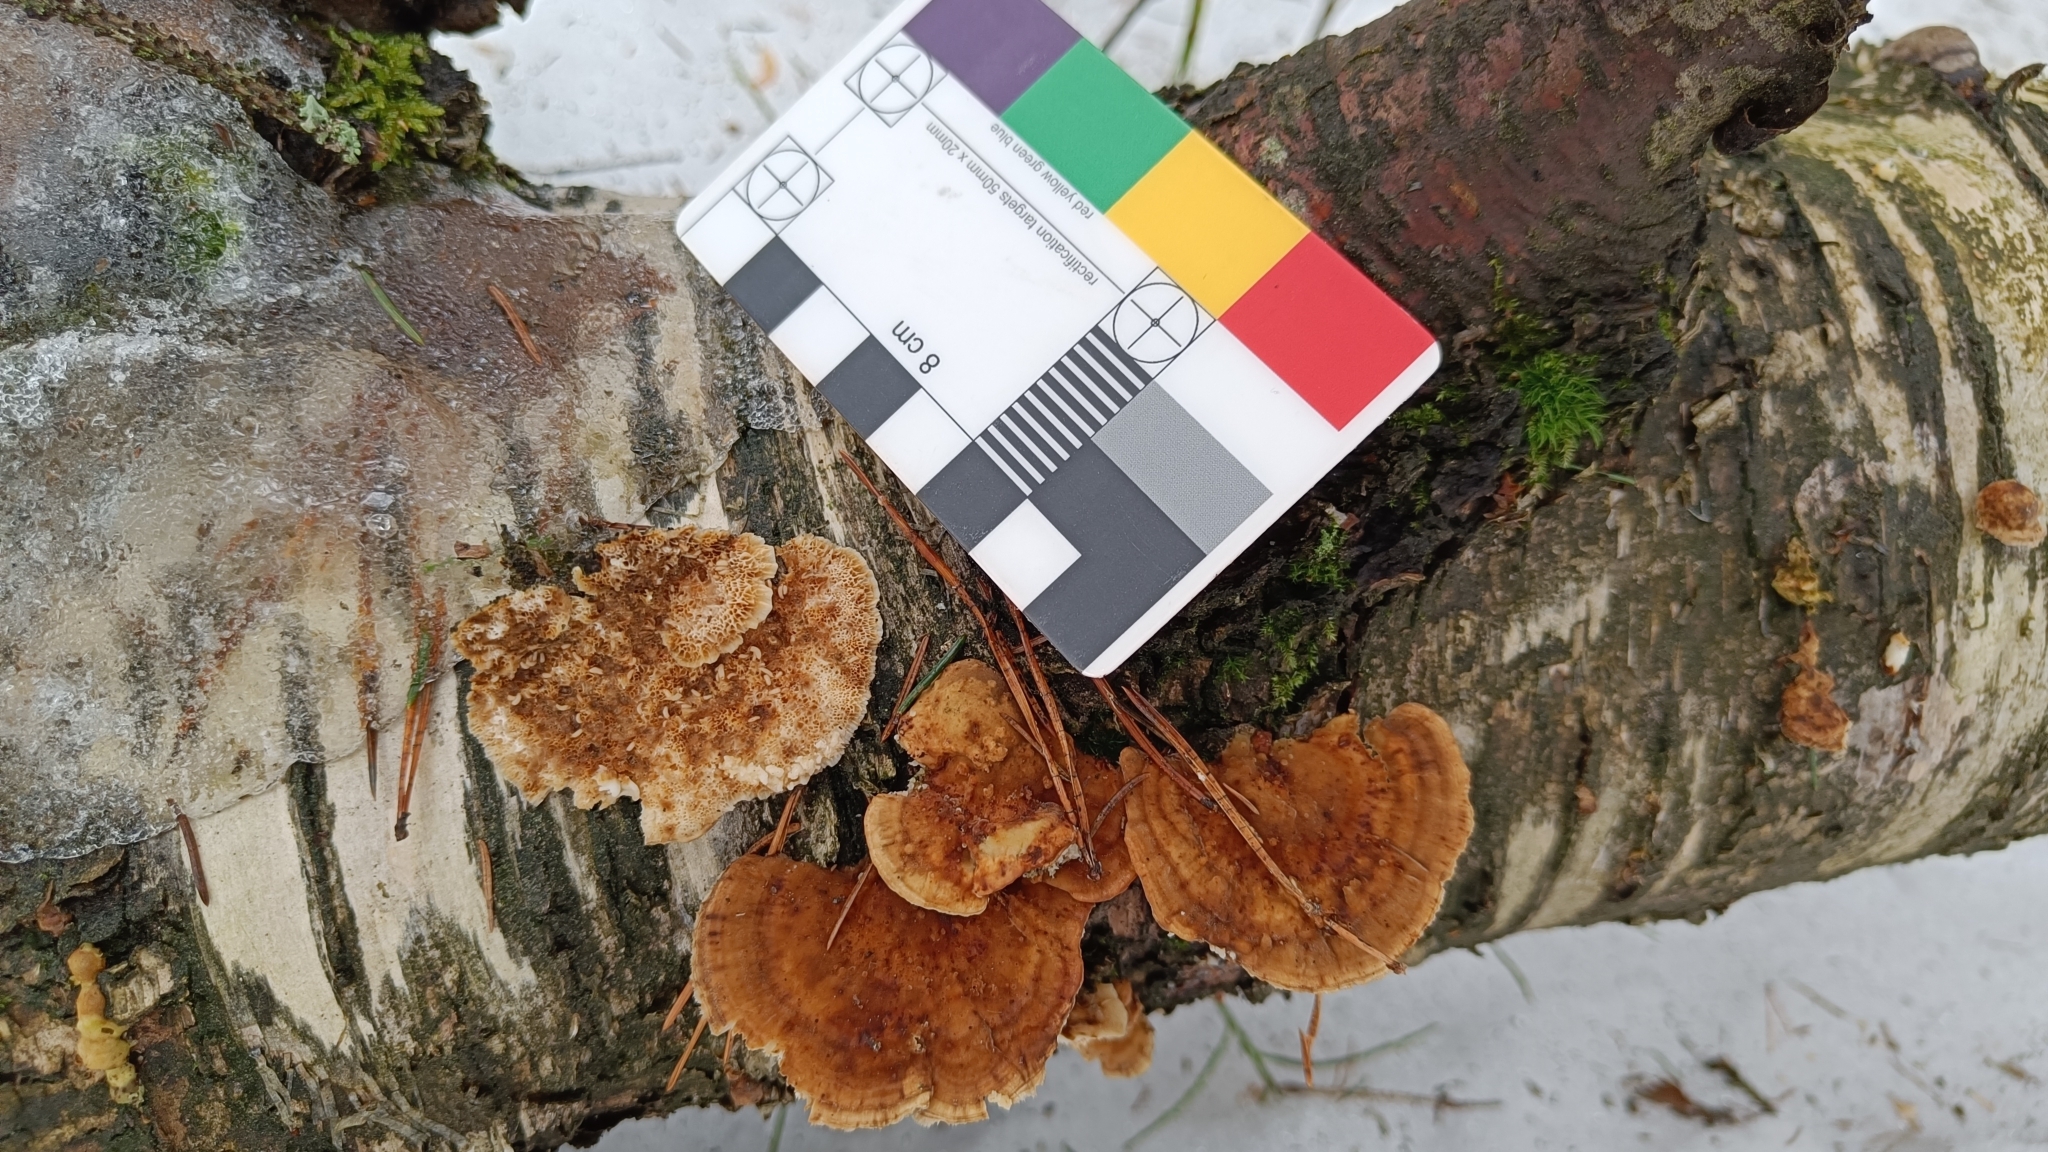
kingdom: Fungi
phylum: Basidiomycota
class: Agaricomycetes
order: Polyporales
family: Polyporaceae
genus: Trametes
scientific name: Trametes ochracea
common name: Ochre bracket
